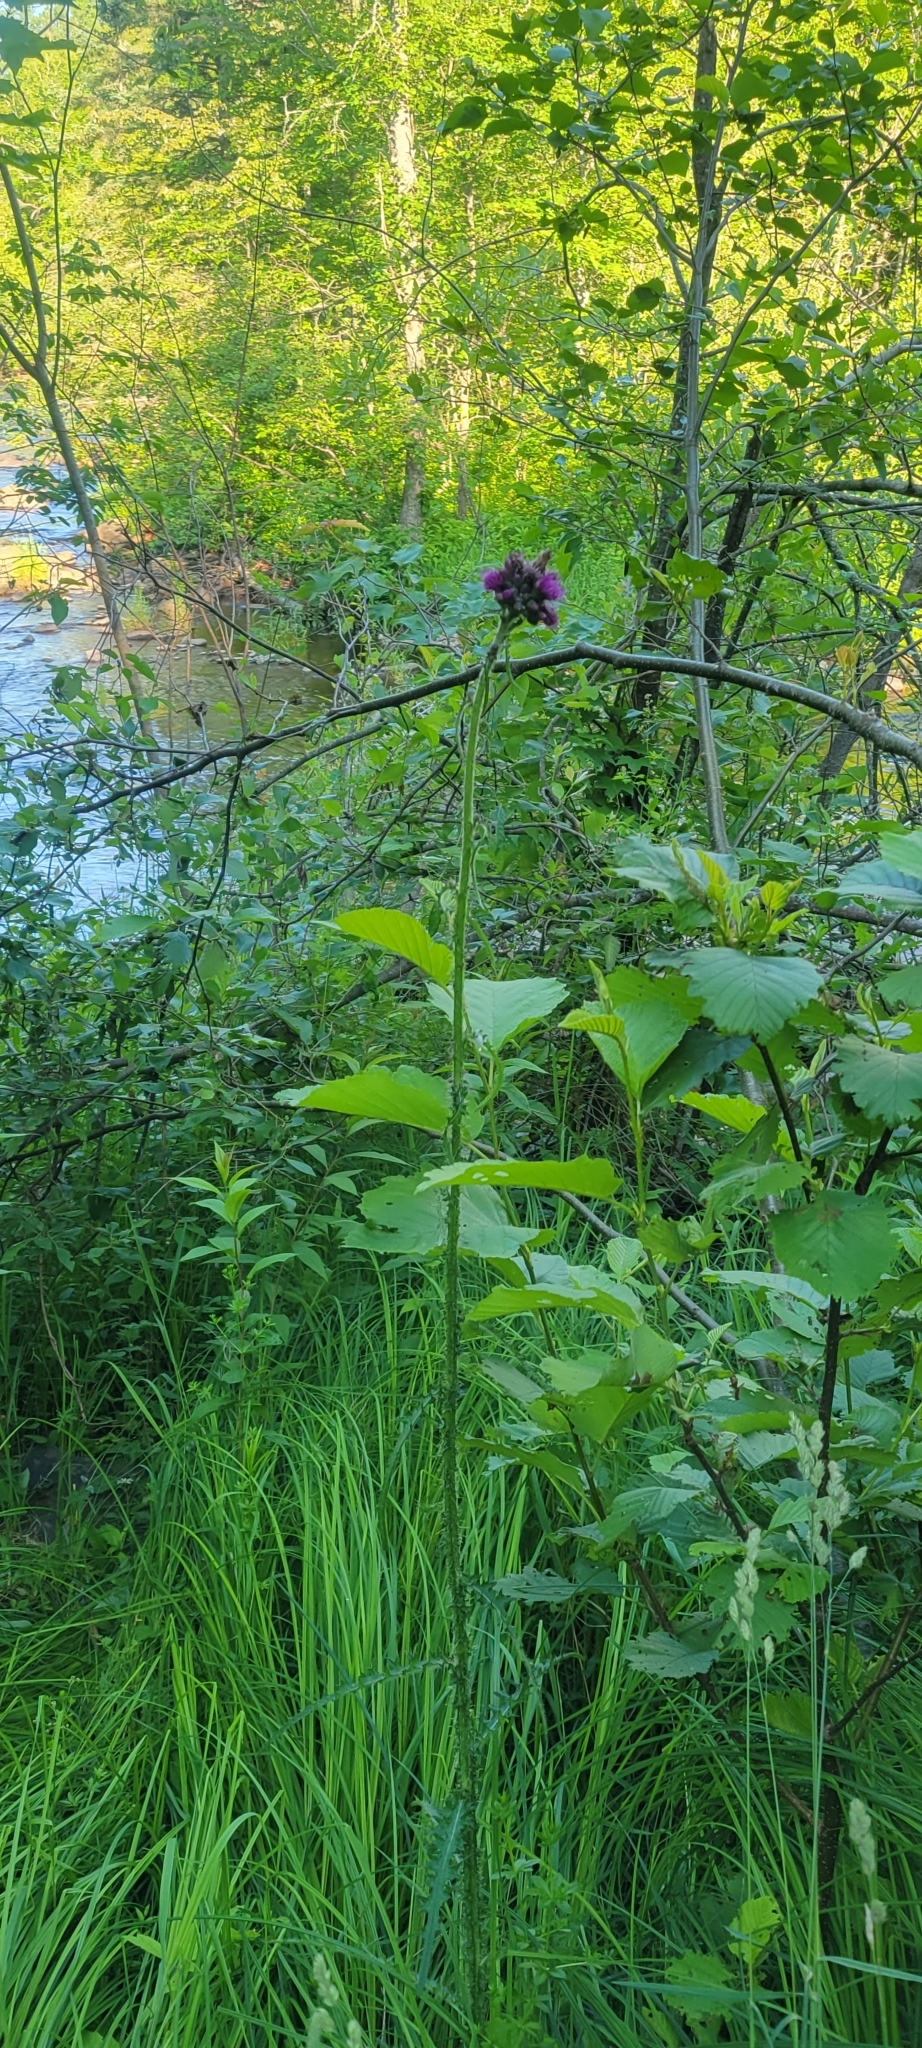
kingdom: Plantae
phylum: Tracheophyta
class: Magnoliopsida
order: Asterales
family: Asteraceae
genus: Cirsium
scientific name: Cirsium palustre
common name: Marsh thistle
